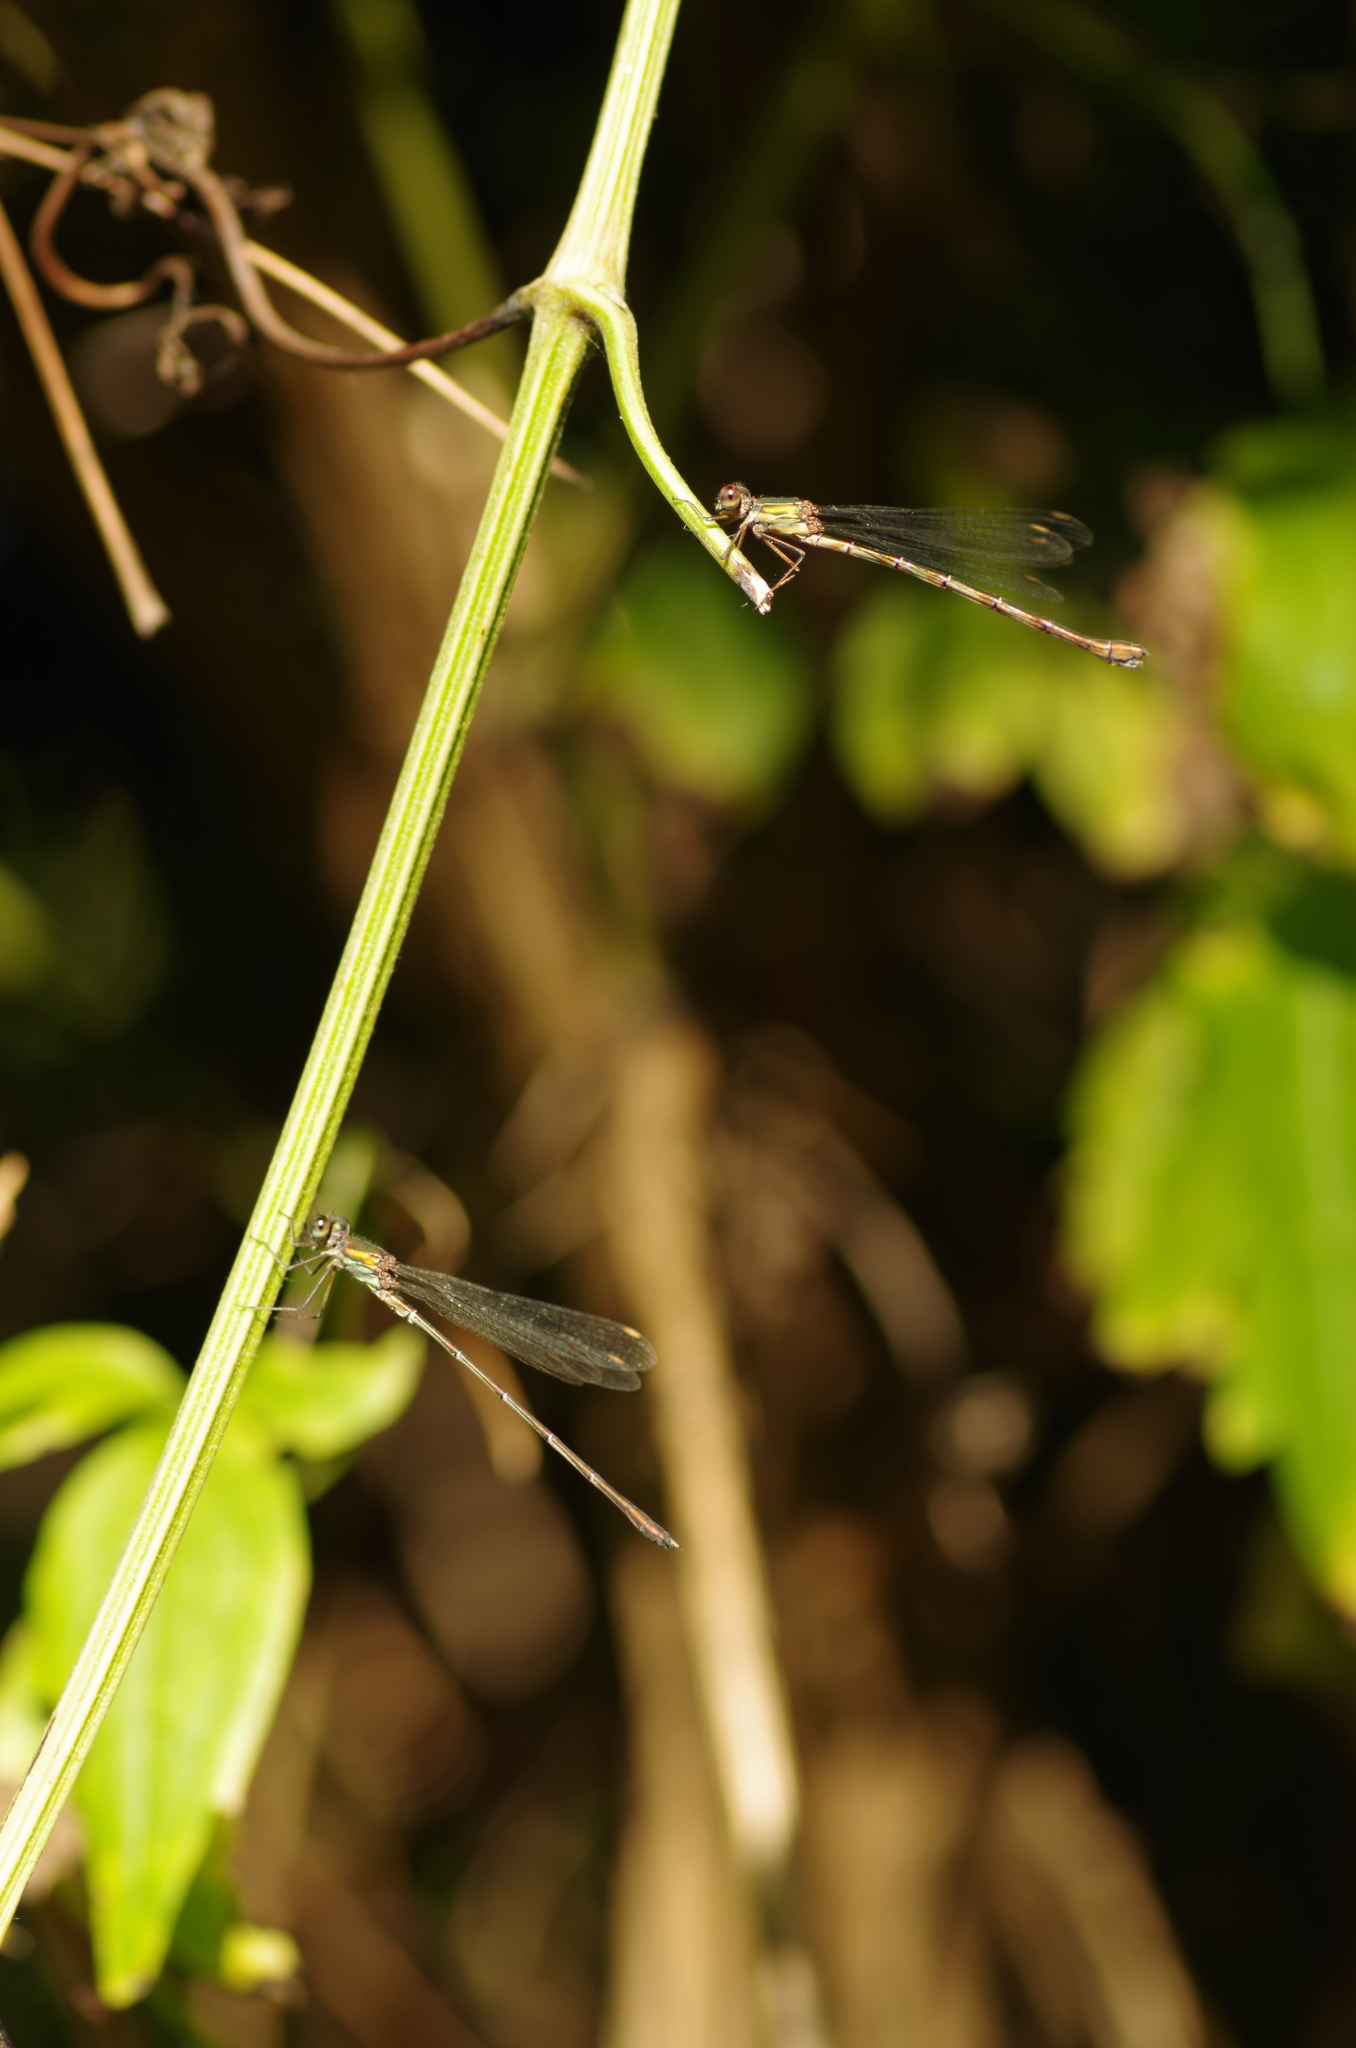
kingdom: Animalia
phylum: Arthropoda
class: Insecta
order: Odonata
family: Lestidae
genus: Chalcolestes
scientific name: Chalcolestes viridis
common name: Green emerald damselfly
